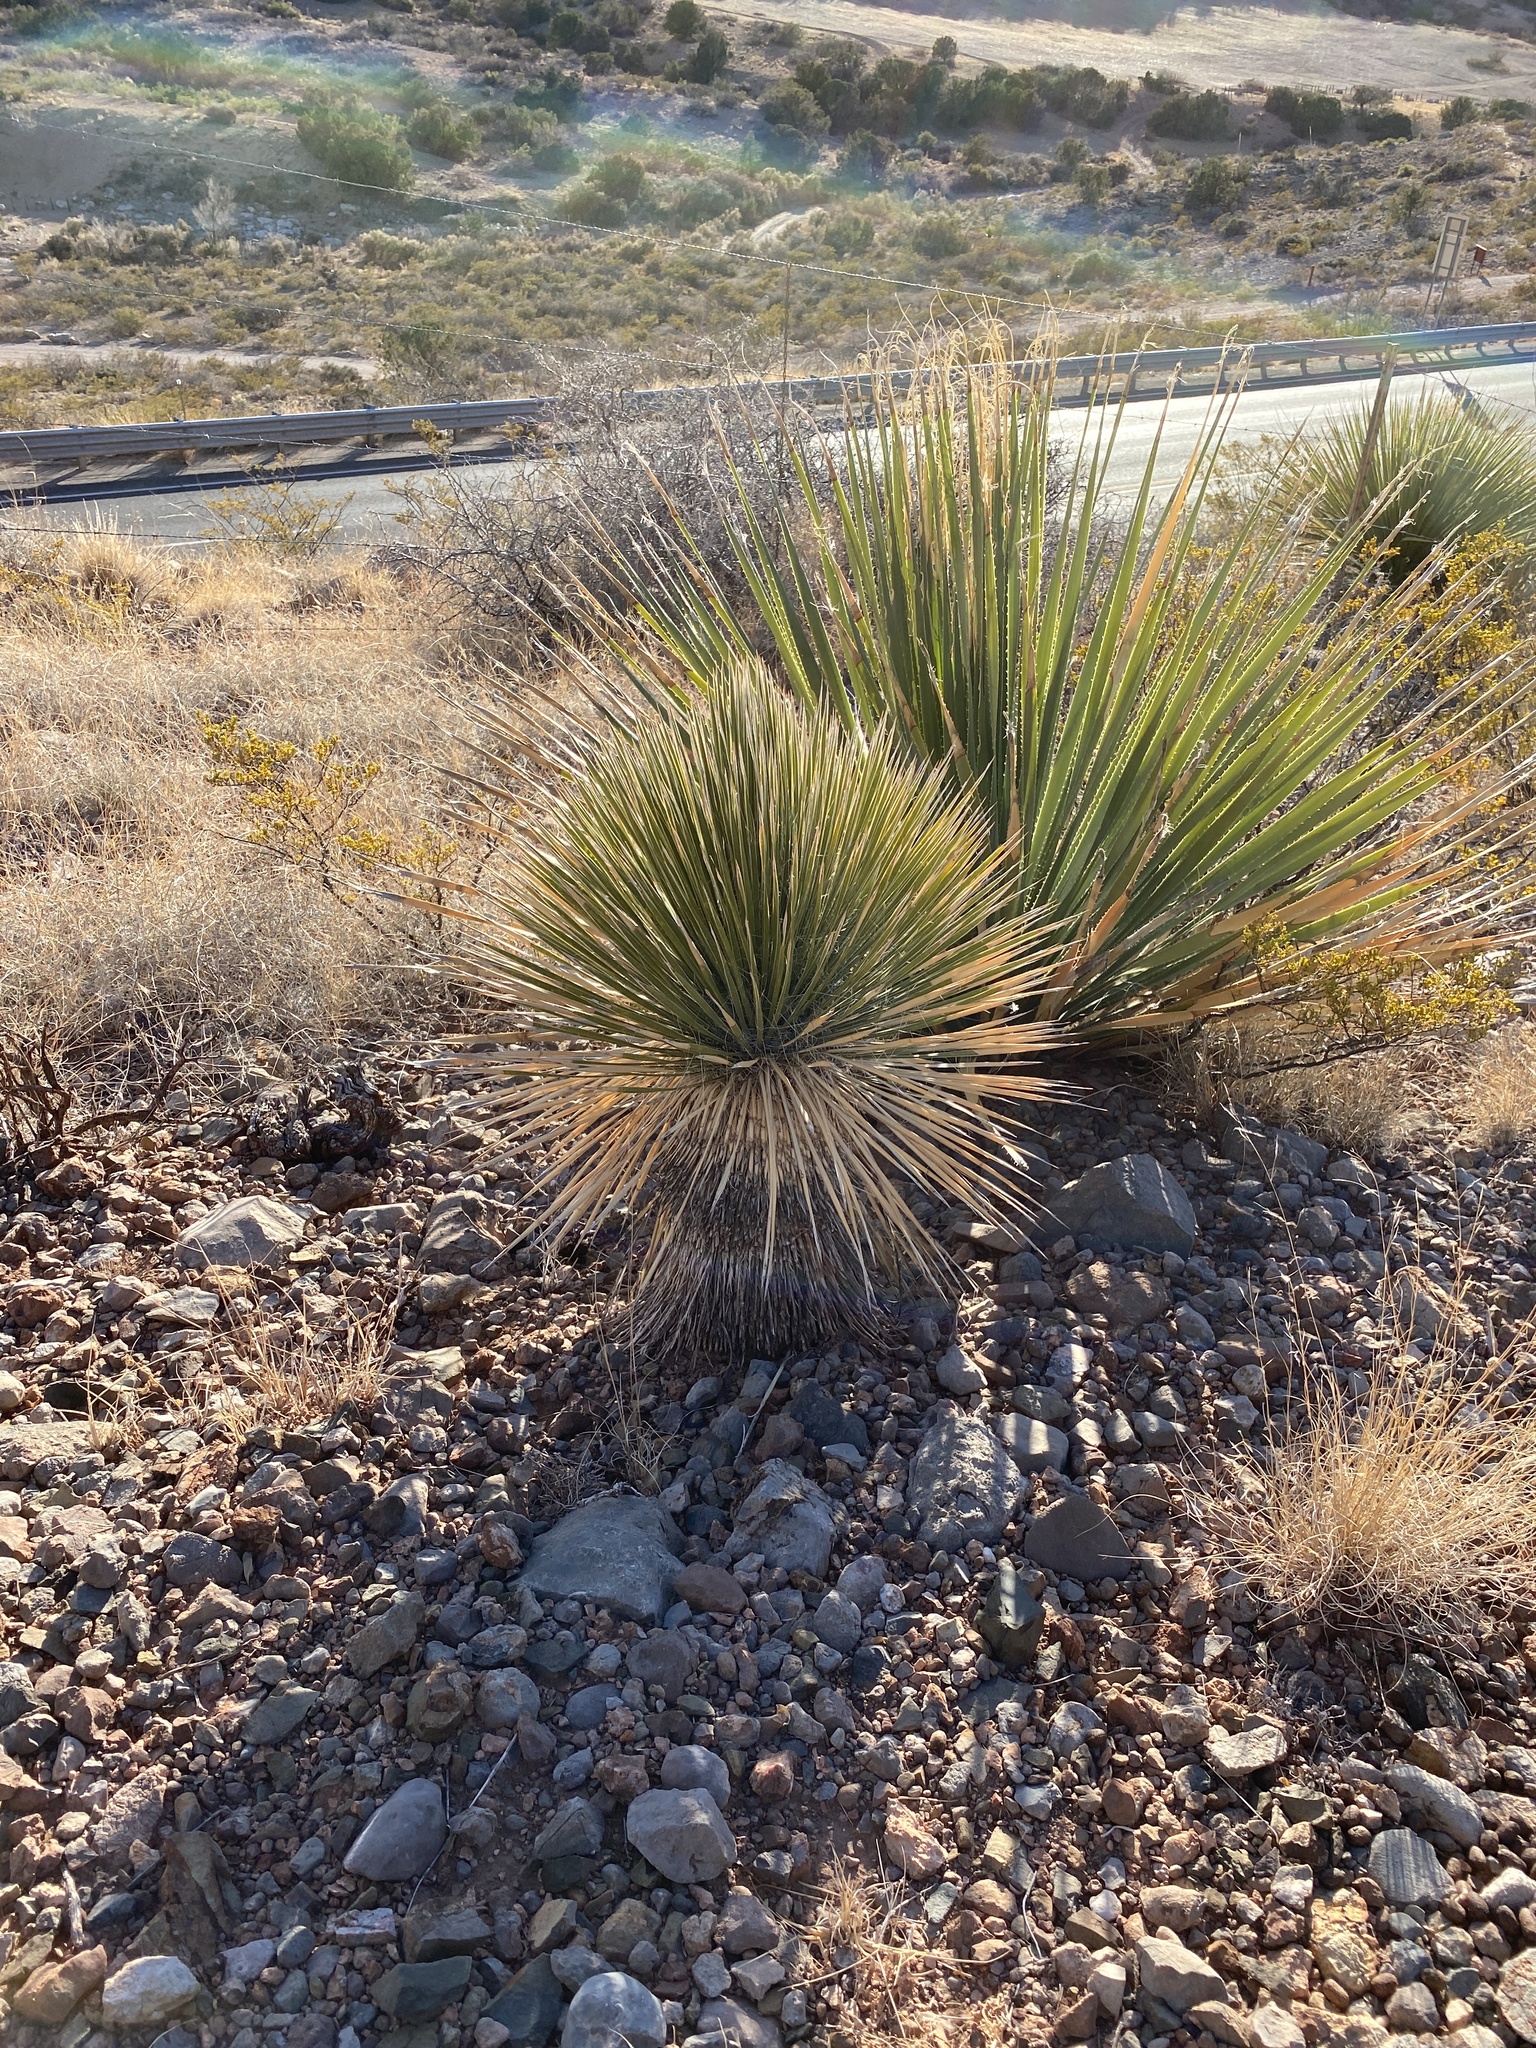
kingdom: Plantae
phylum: Tracheophyta
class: Liliopsida
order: Asparagales
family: Asparagaceae
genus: Yucca
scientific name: Yucca elata
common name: Palmella
